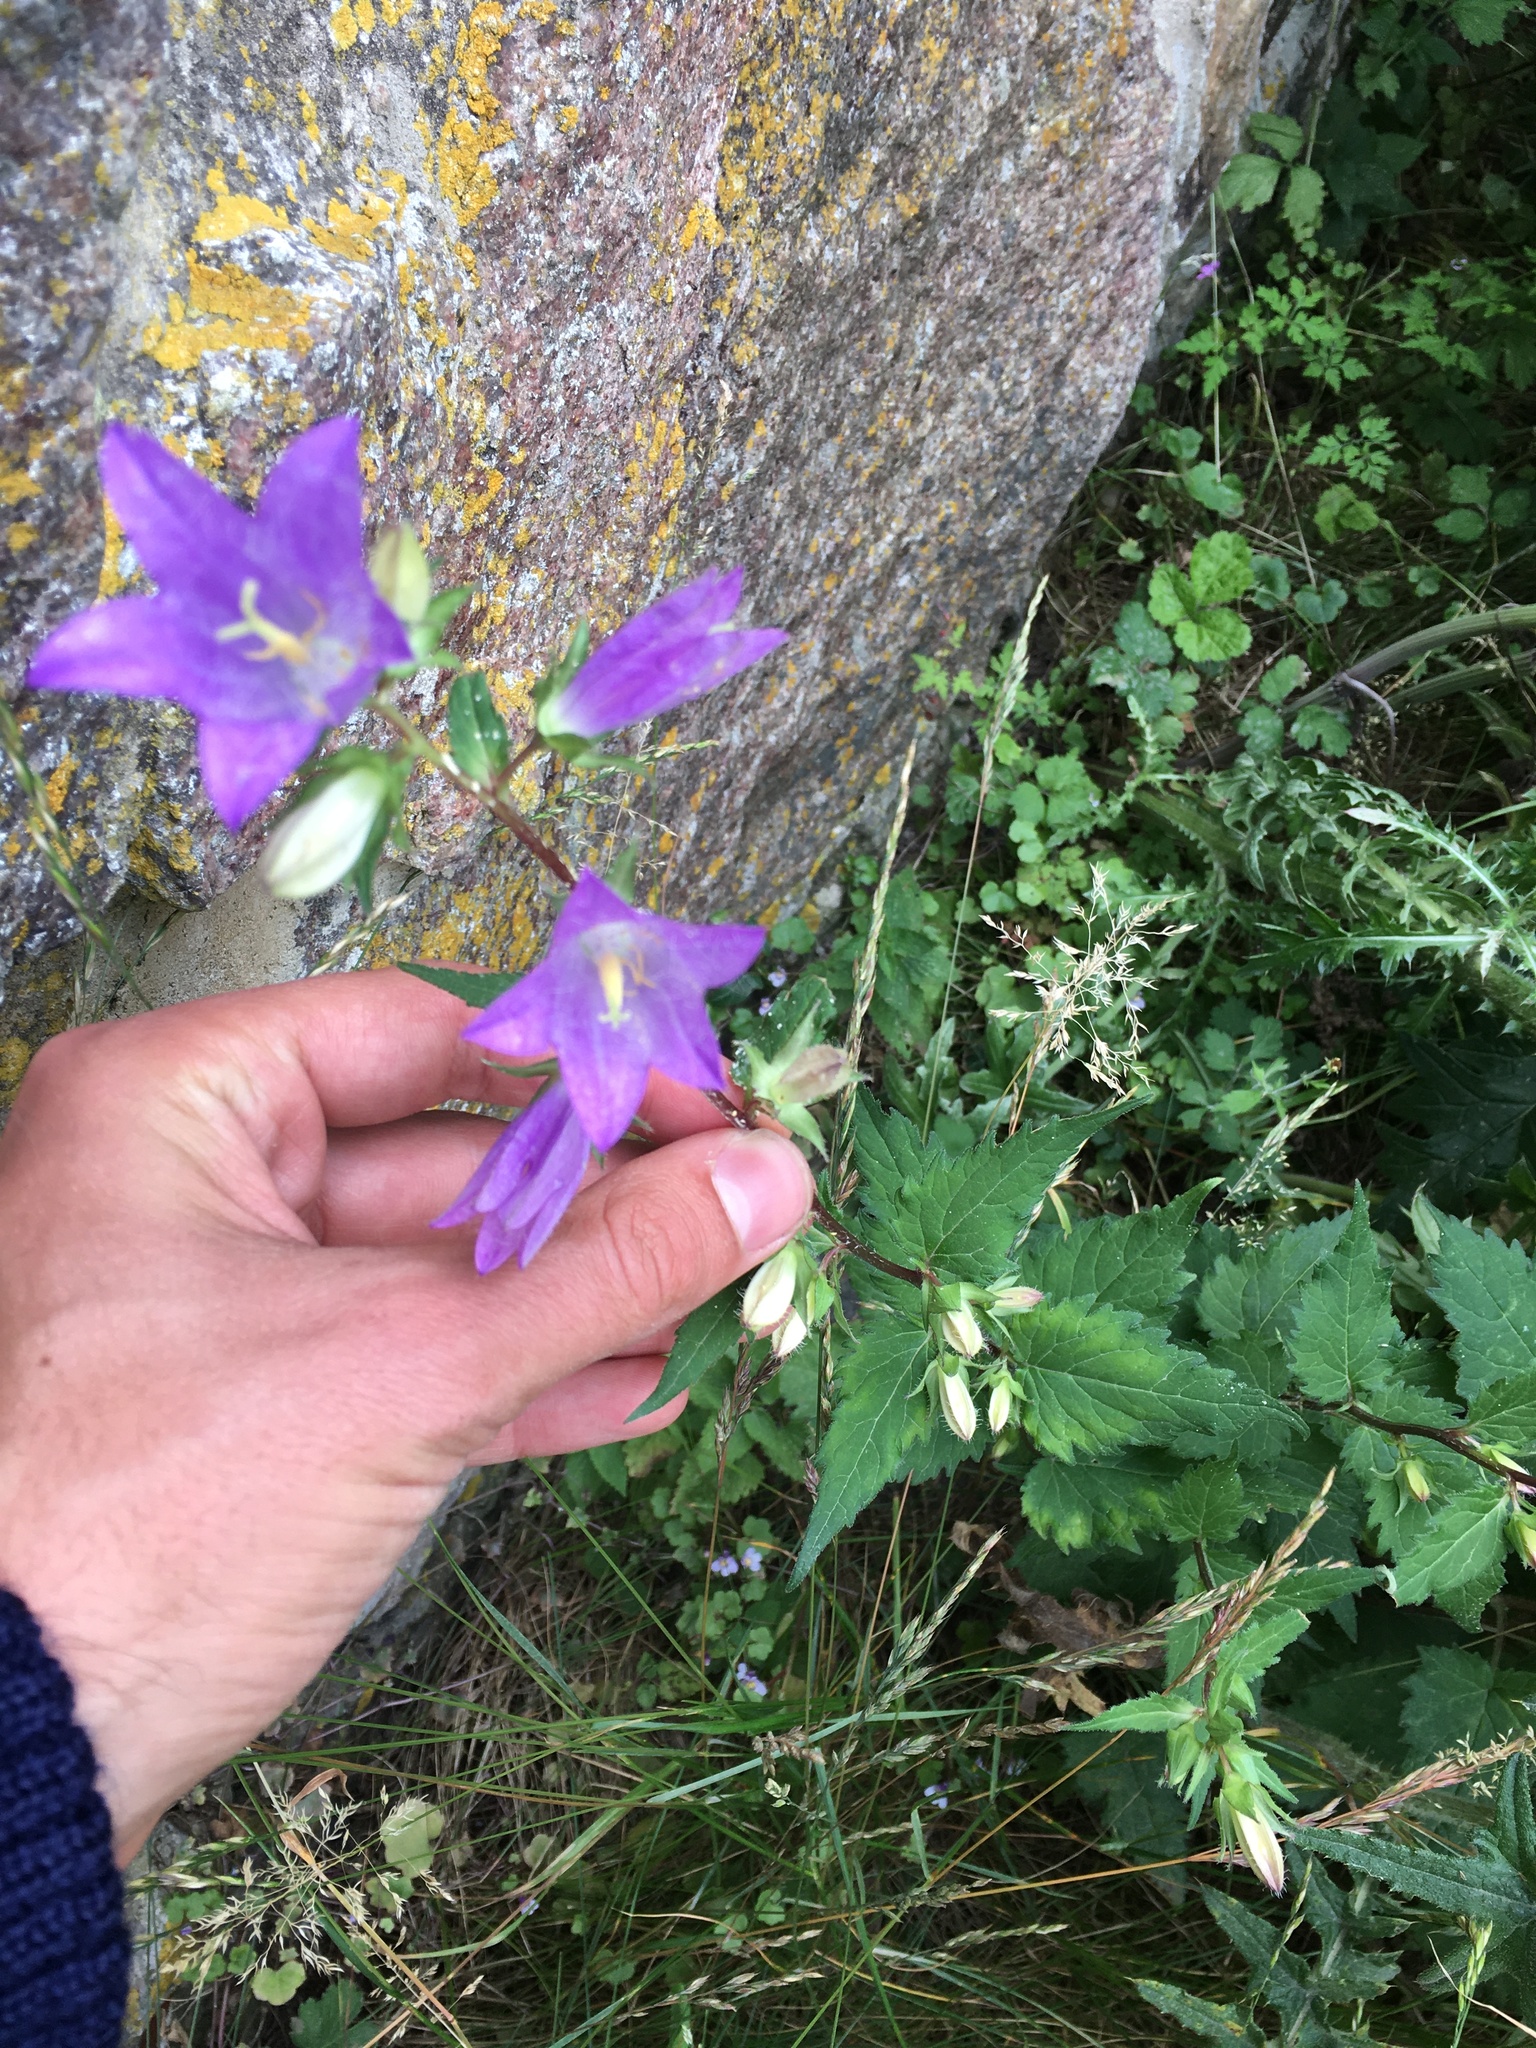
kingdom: Plantae
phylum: Tracheophyta
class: Magnoliopsida
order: Asterales
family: Campanulaceae
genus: Campanula
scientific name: Campanula trachelium
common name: Nettle-leaved bellflower
